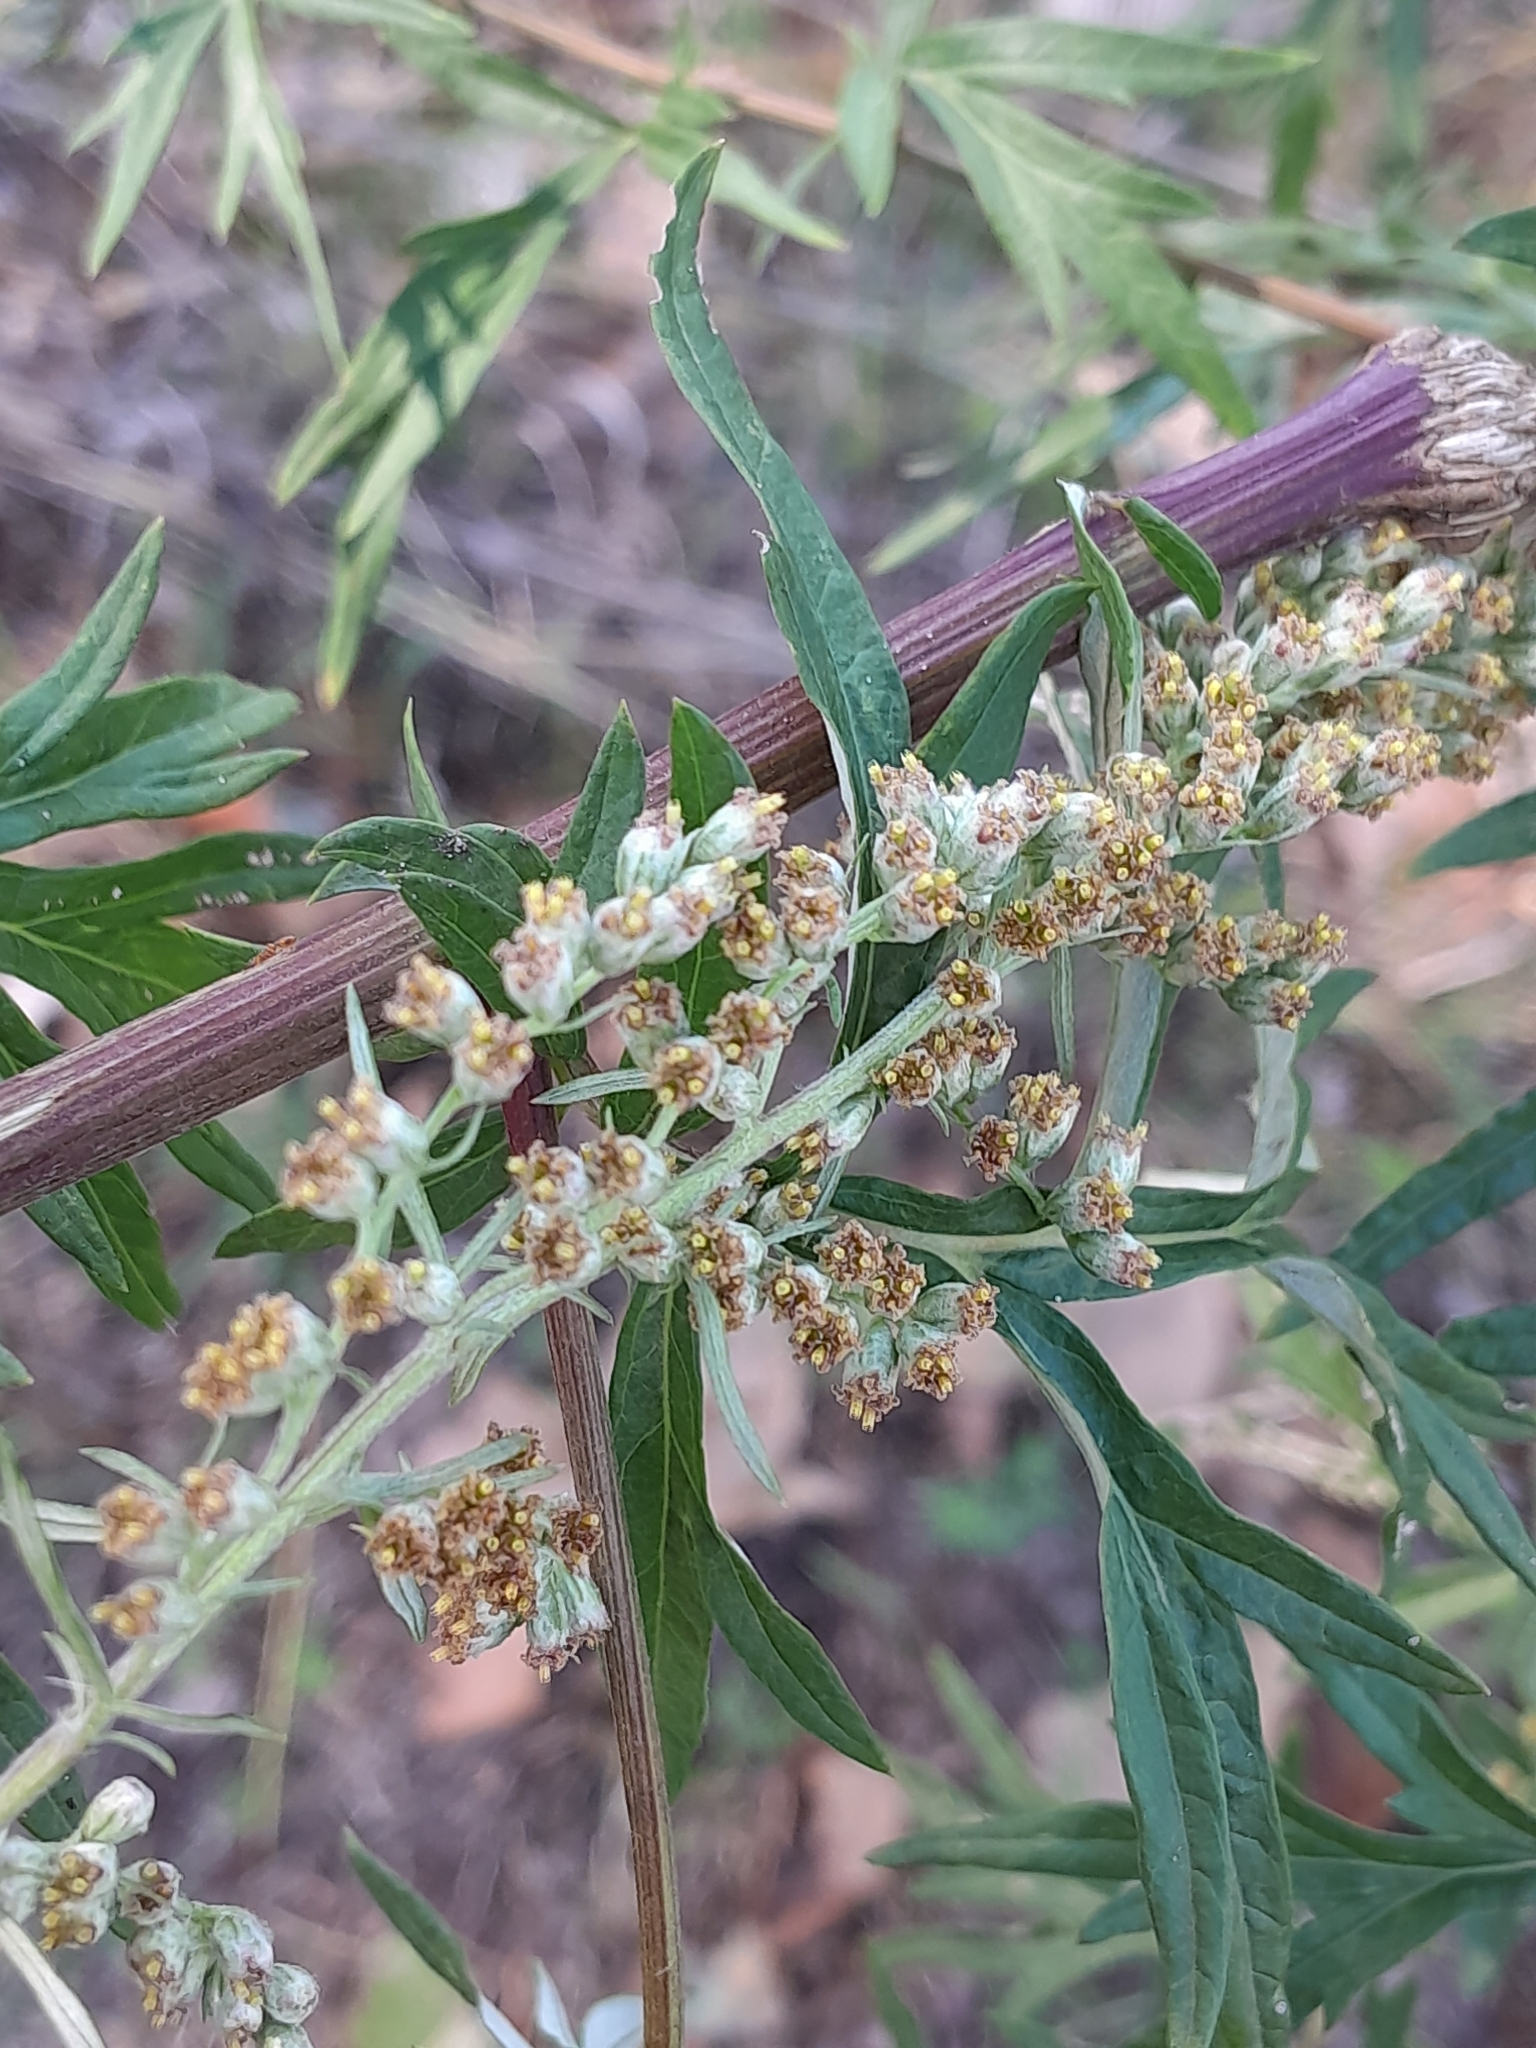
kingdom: Plantae
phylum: Tracheophyta
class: Magnoliopsida
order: Asterales
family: Asteraceae
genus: Artemisia
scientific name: Artemisia vulgaris
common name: Mugwort
